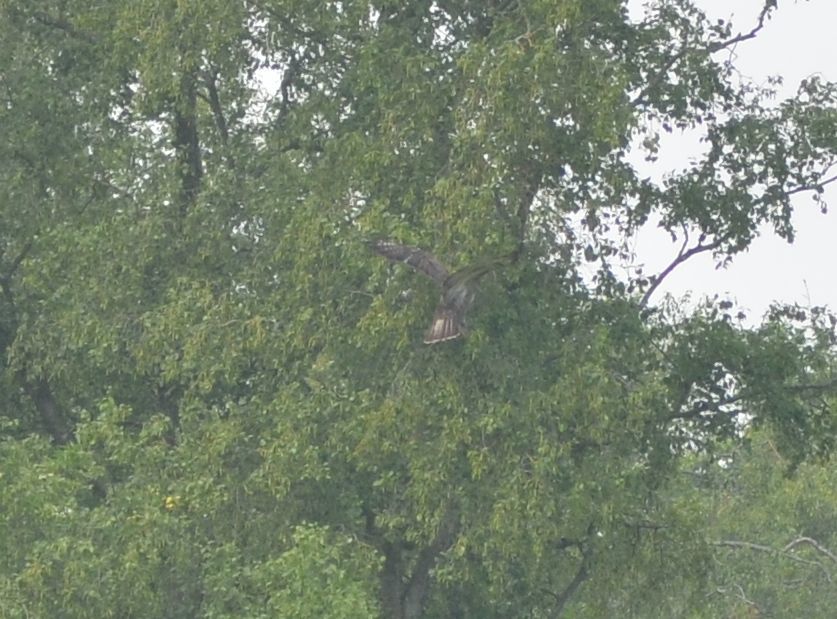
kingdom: Animalia
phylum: Chordata
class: Aves
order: Accipitriformes
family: Accipitridae
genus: Buteo
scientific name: Buteo buteo
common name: Common buzzard
